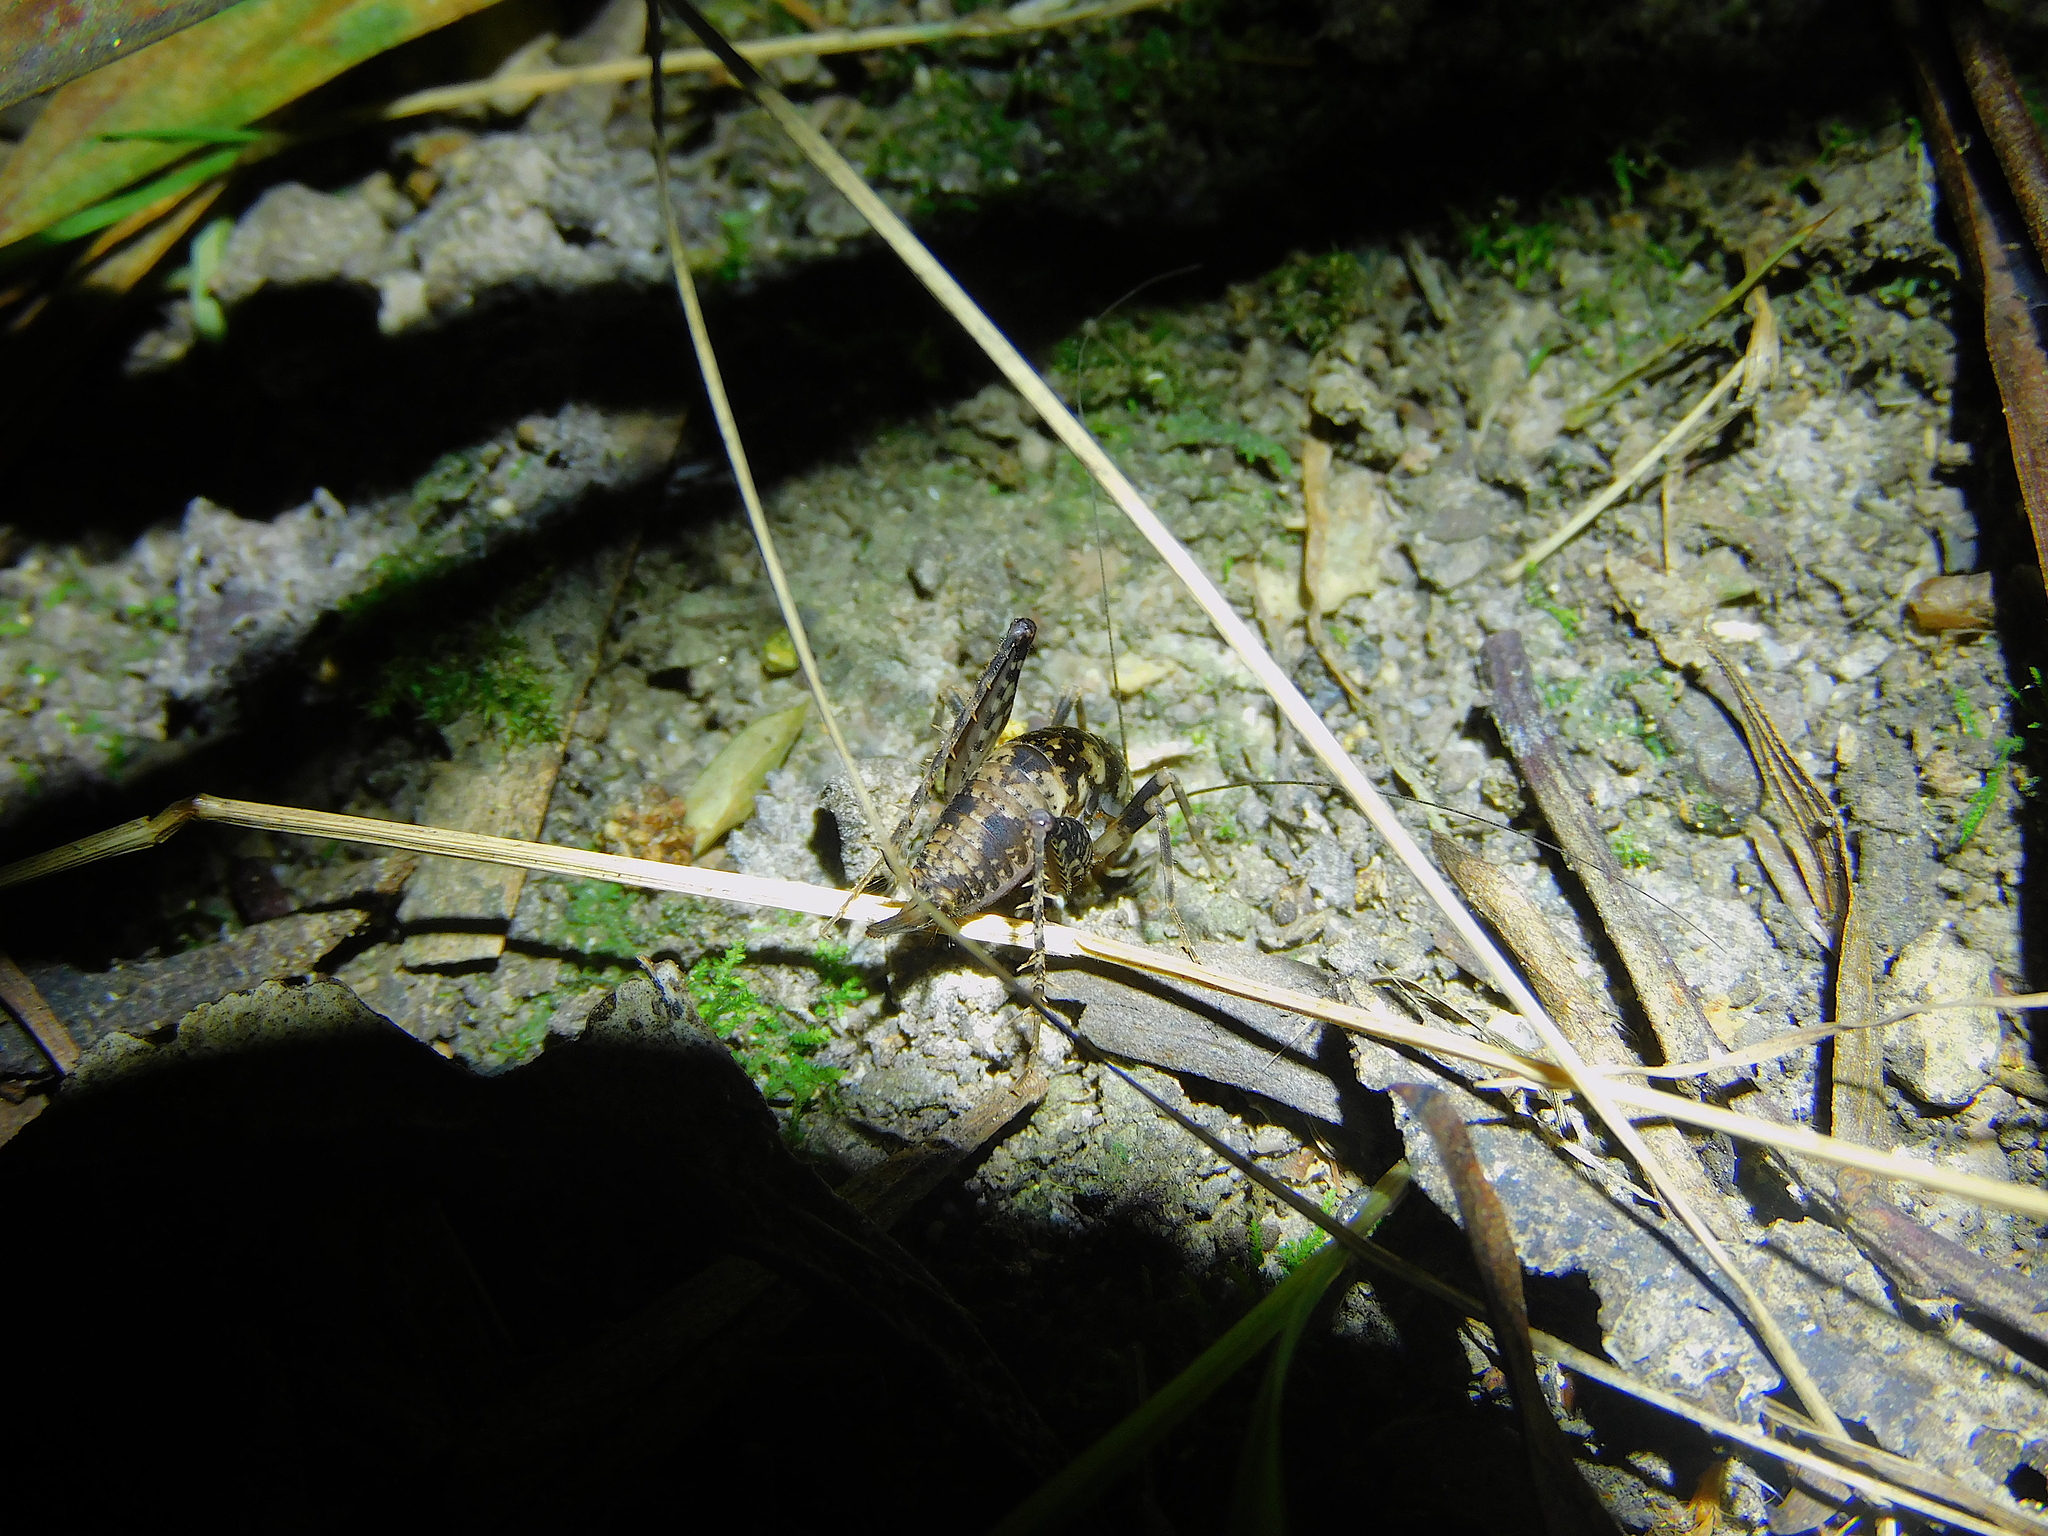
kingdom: Animalia
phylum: Arthropoda
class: Insecta
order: Orthoptera
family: Rhaphidophoridae
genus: Parvotettix
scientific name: Parvotettix domesticus
